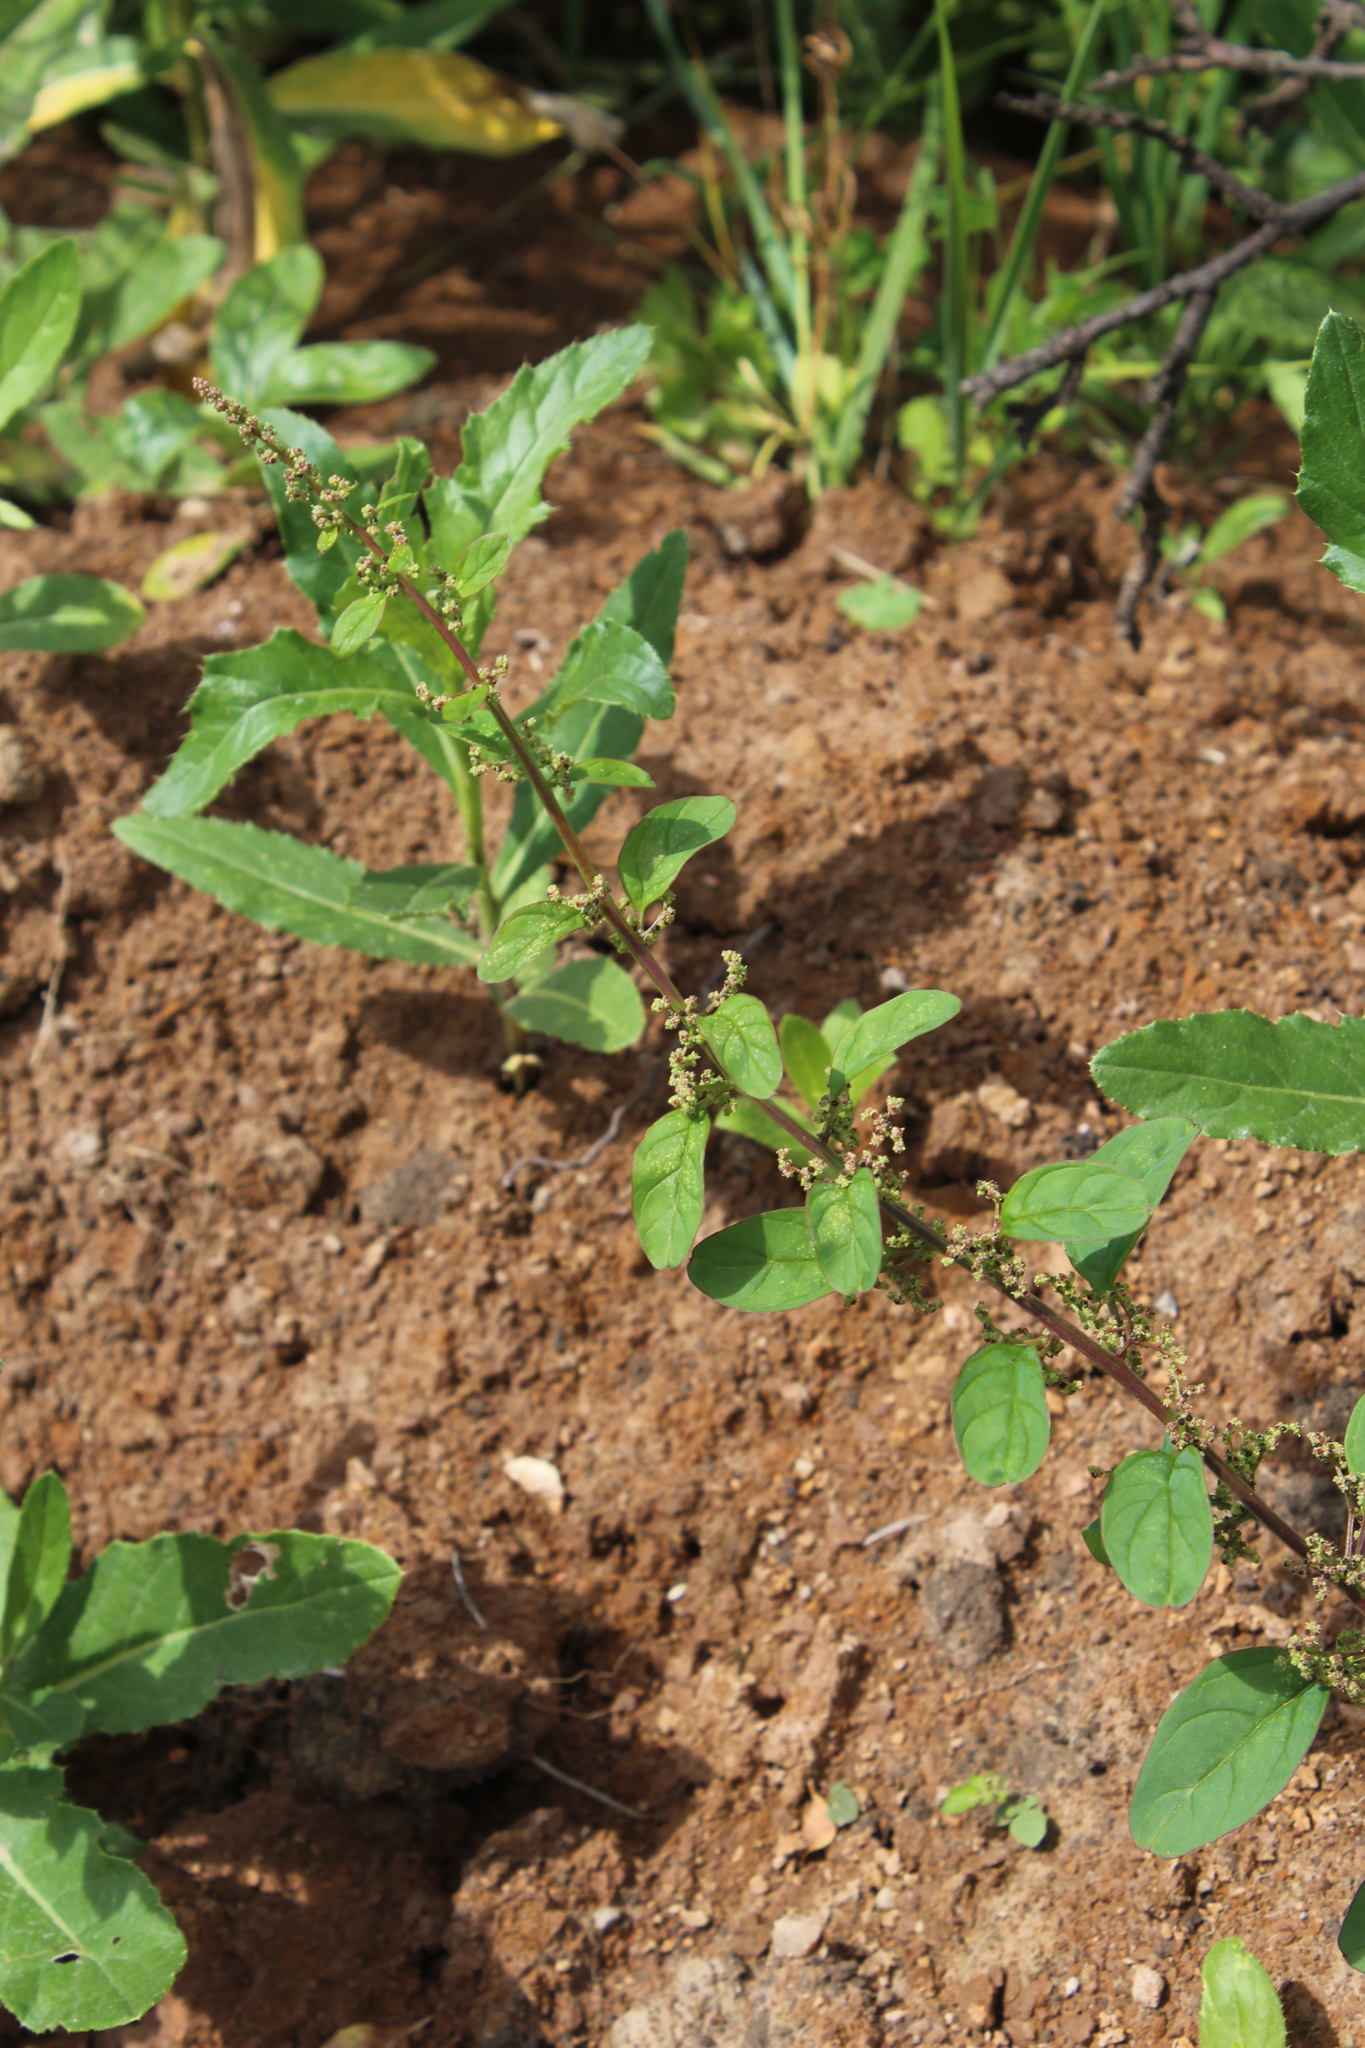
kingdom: Plantae
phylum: Tracheophyta
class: Magnoliopsida
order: Caryophyllales
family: Amaranthaceae
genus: Lipandra
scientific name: Lipandra polysperma
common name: Many-seed goosefoot
